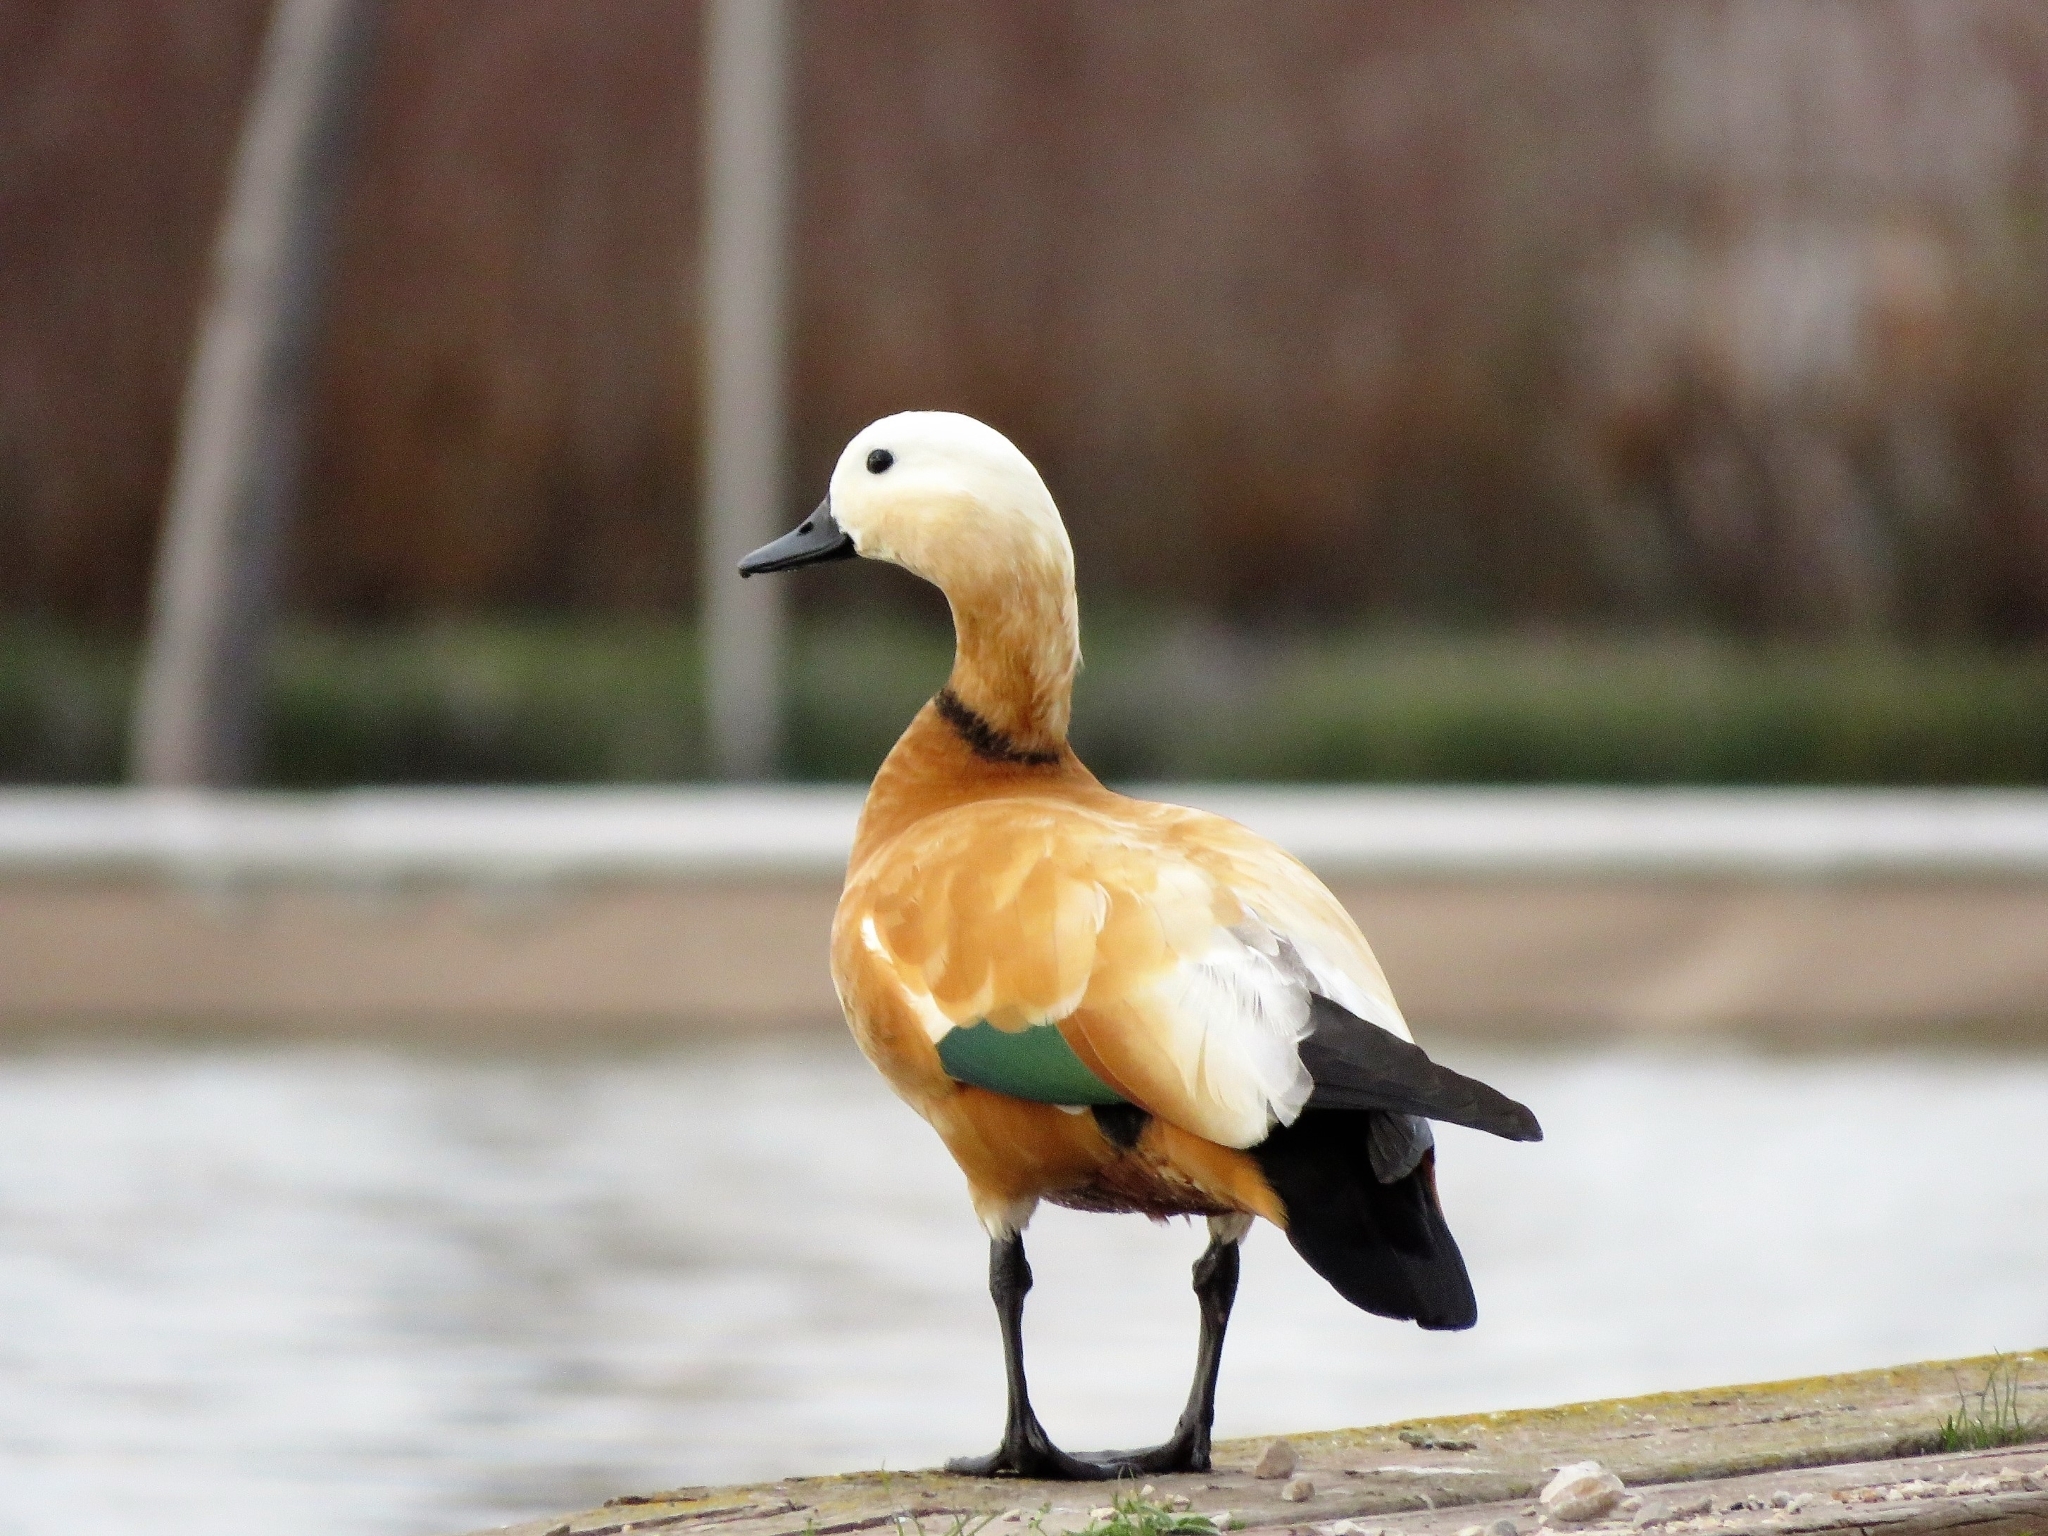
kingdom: Animalia
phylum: Chordata
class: Aves
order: Anseriformes
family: Anatidae
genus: Tadorna
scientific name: Tadorna ferruginea
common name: Ruddy shelduck
